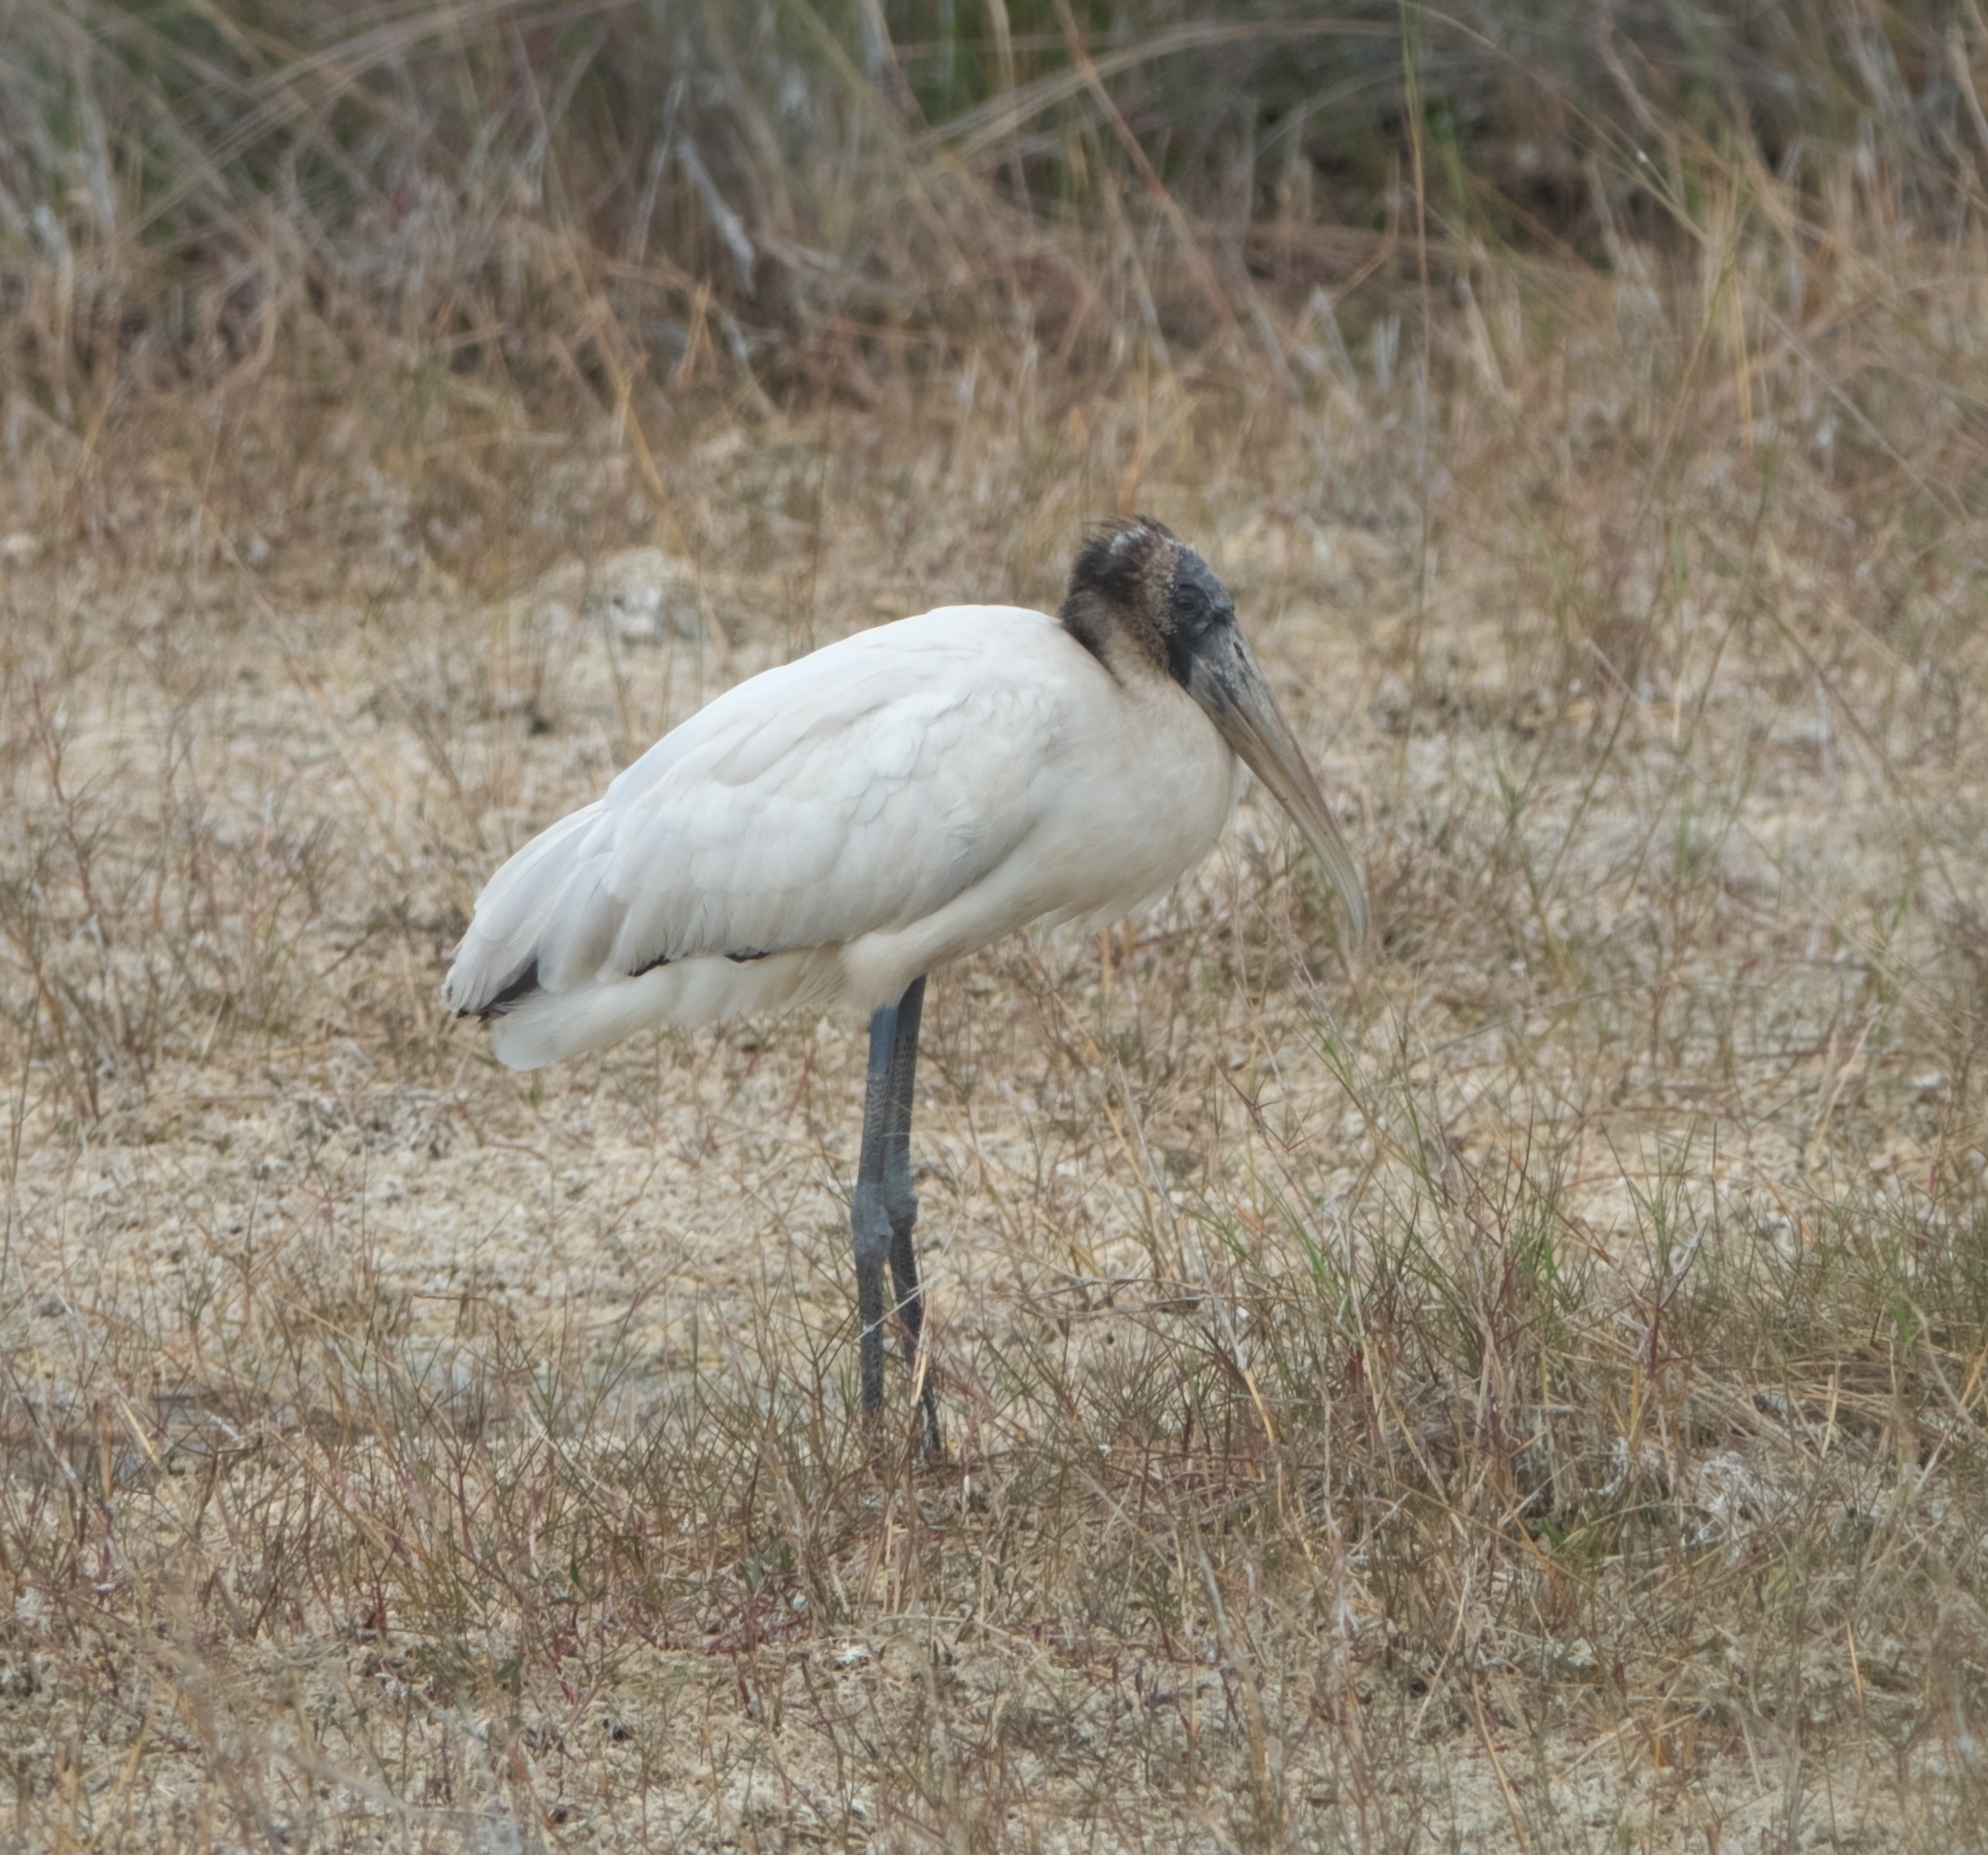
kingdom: Animalia
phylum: Chordata
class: Aves
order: Ciconiiformes
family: Ciconiidae
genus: Mycteria
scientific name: Mycteria americana
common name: Wood stork
